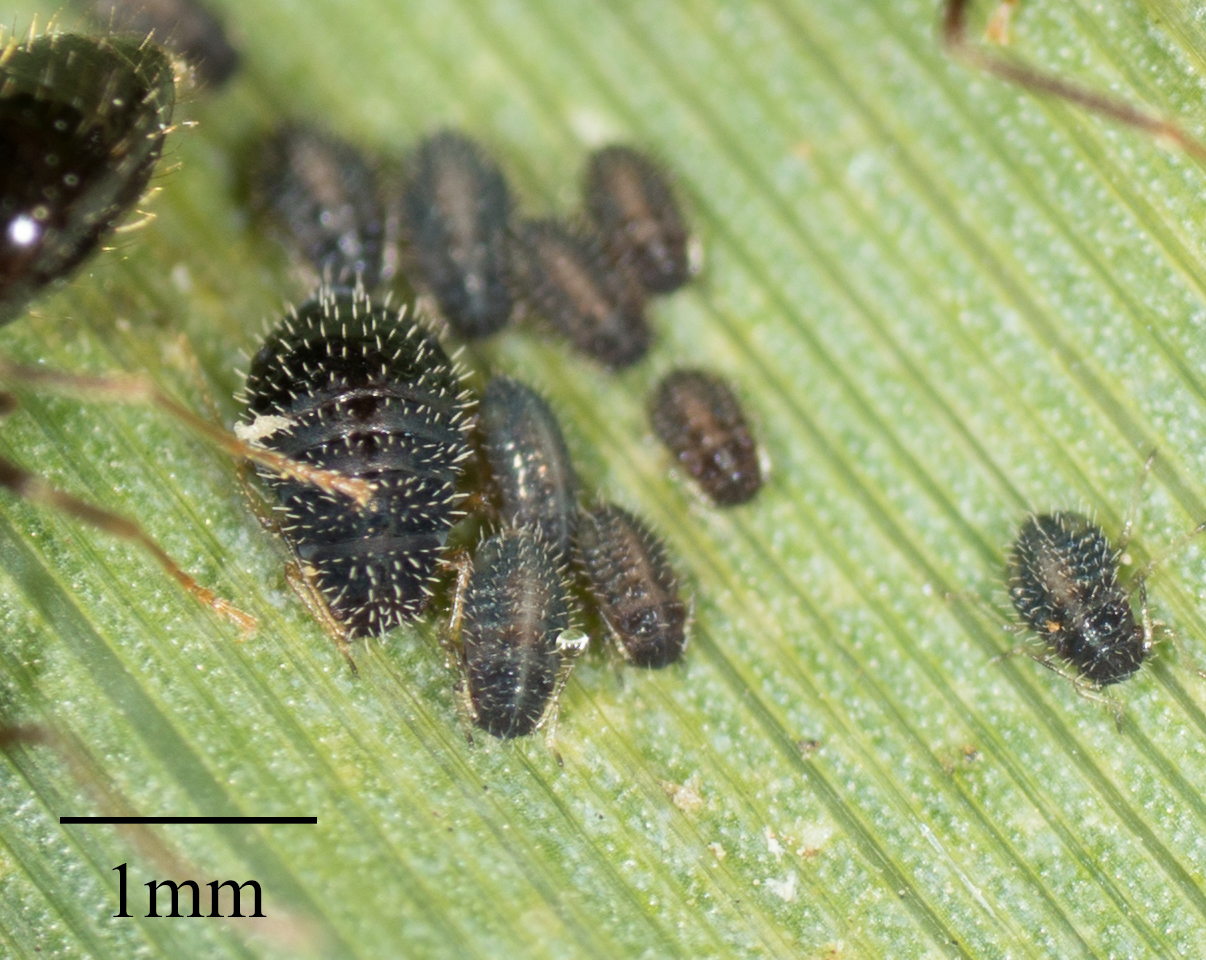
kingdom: Animalia
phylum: Arthropoda
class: Insecta
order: Hemiptera
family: Aphididae
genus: Sipha
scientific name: Sipha maydis
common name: Aphid
